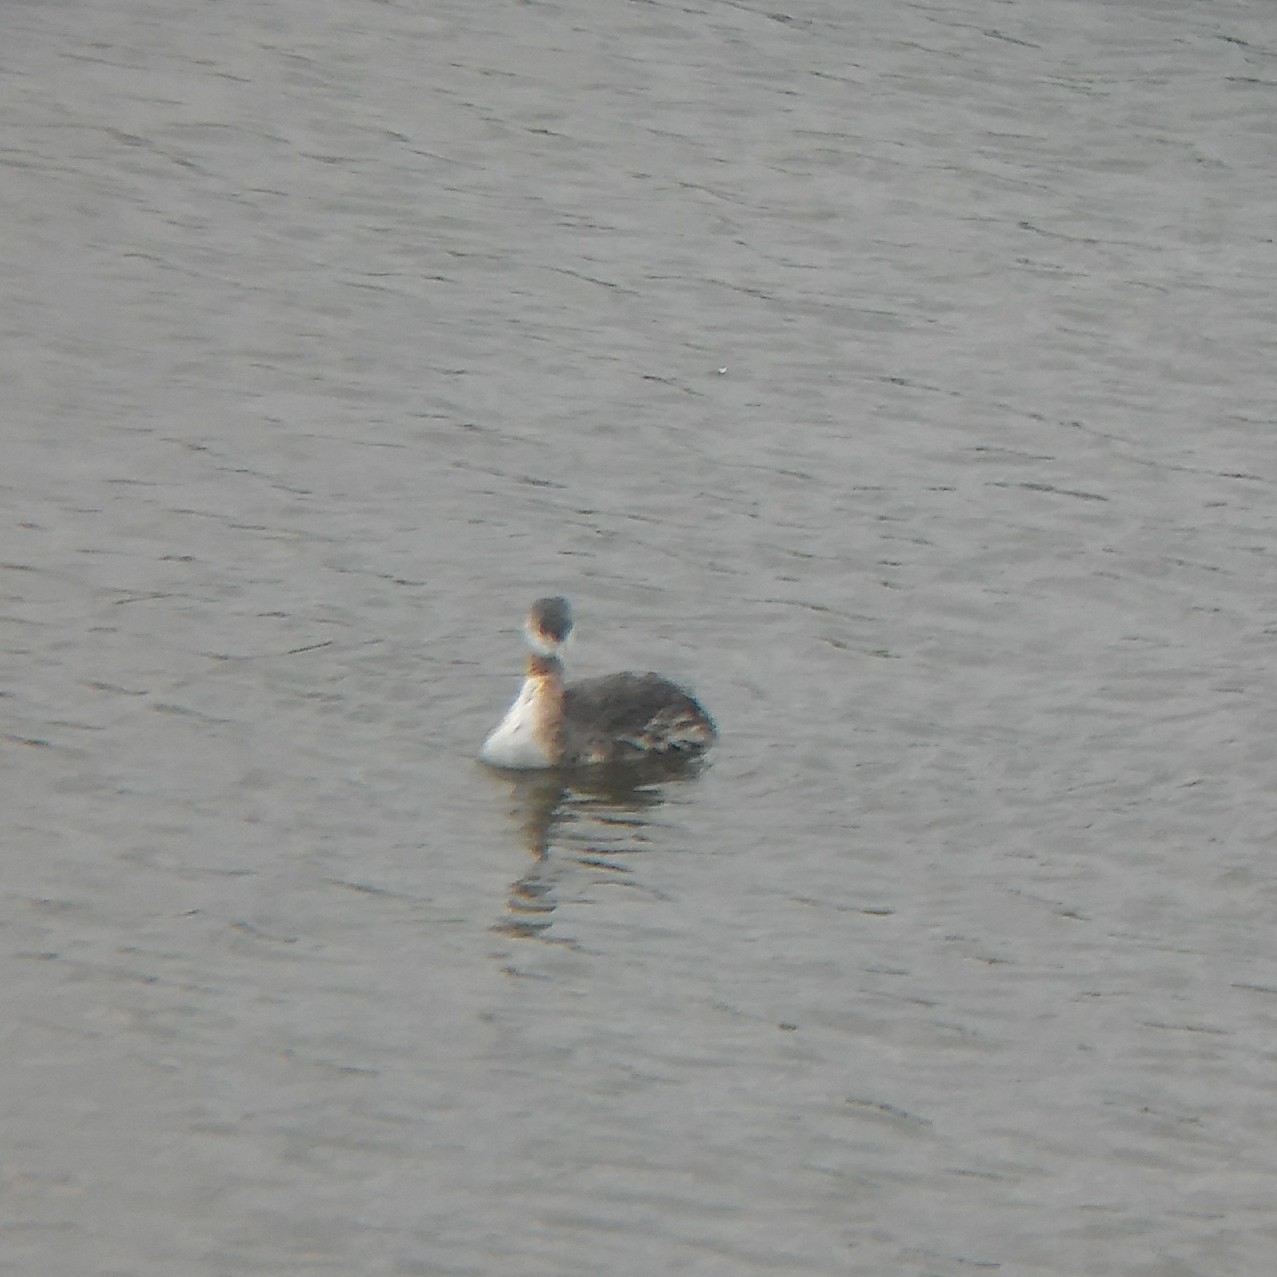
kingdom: Animalia
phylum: Chordata
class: Aves
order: Podicipediformes
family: Podicipedidae
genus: Podiceps
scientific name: Podiceps major
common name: Great grebe
